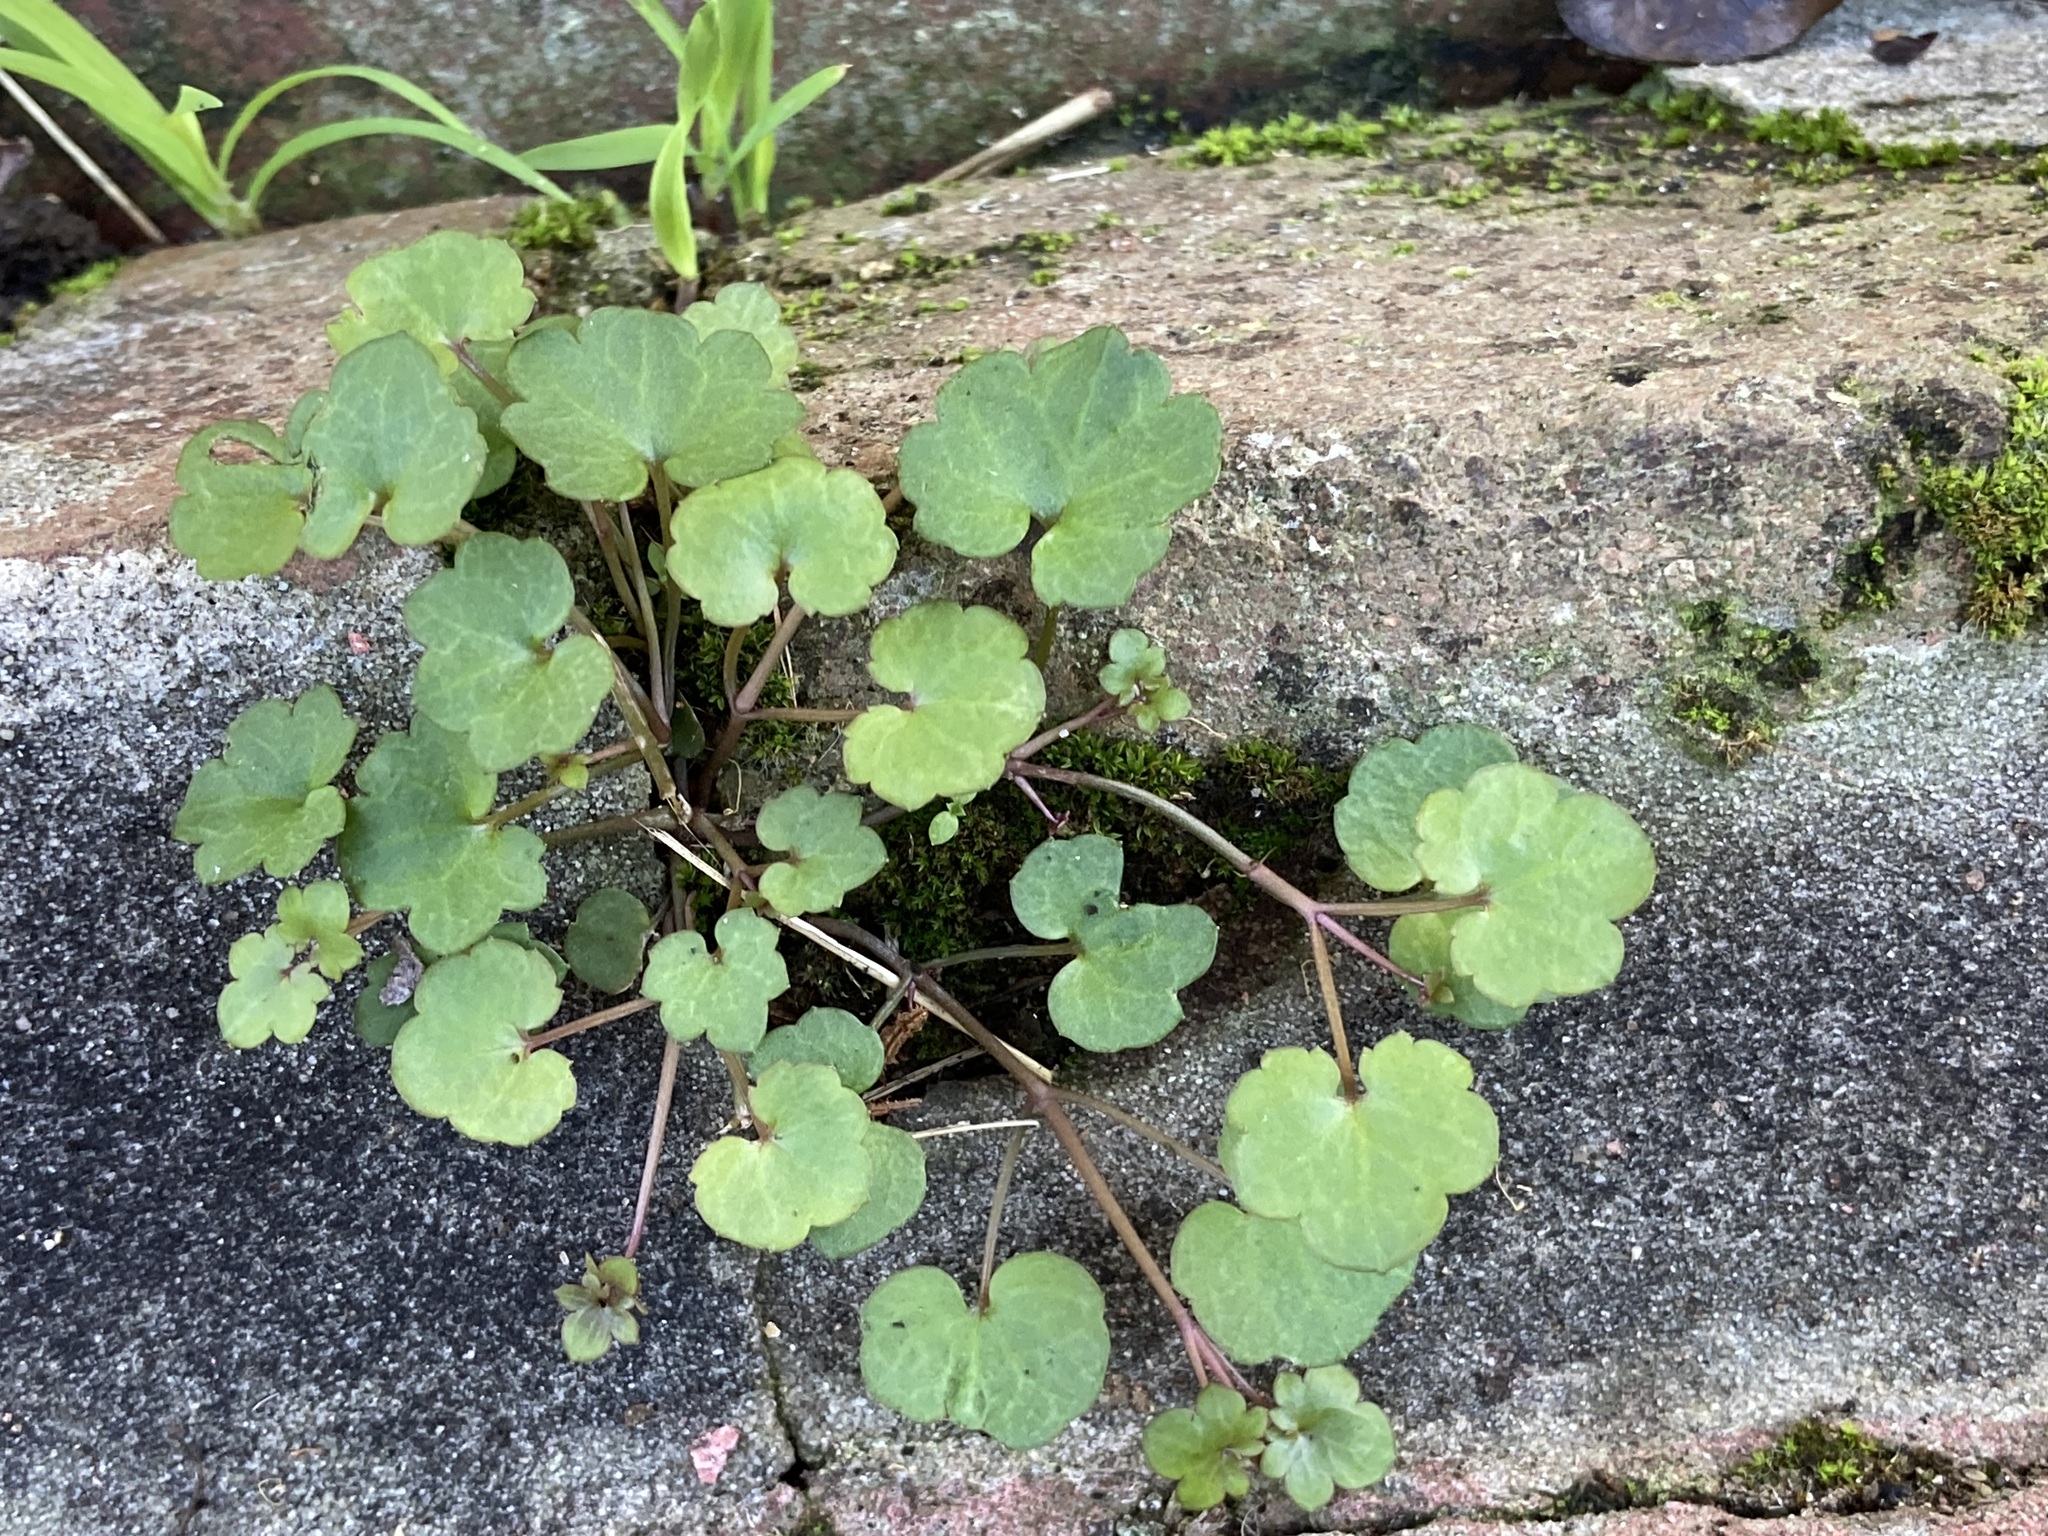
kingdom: Plantae
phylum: Tracheophyta
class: Magnoliopsida
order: Lamiales
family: Plantaginaceae
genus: Cymbalaria
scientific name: Cymbalaria muralis
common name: Ivy-leaved toadflax
